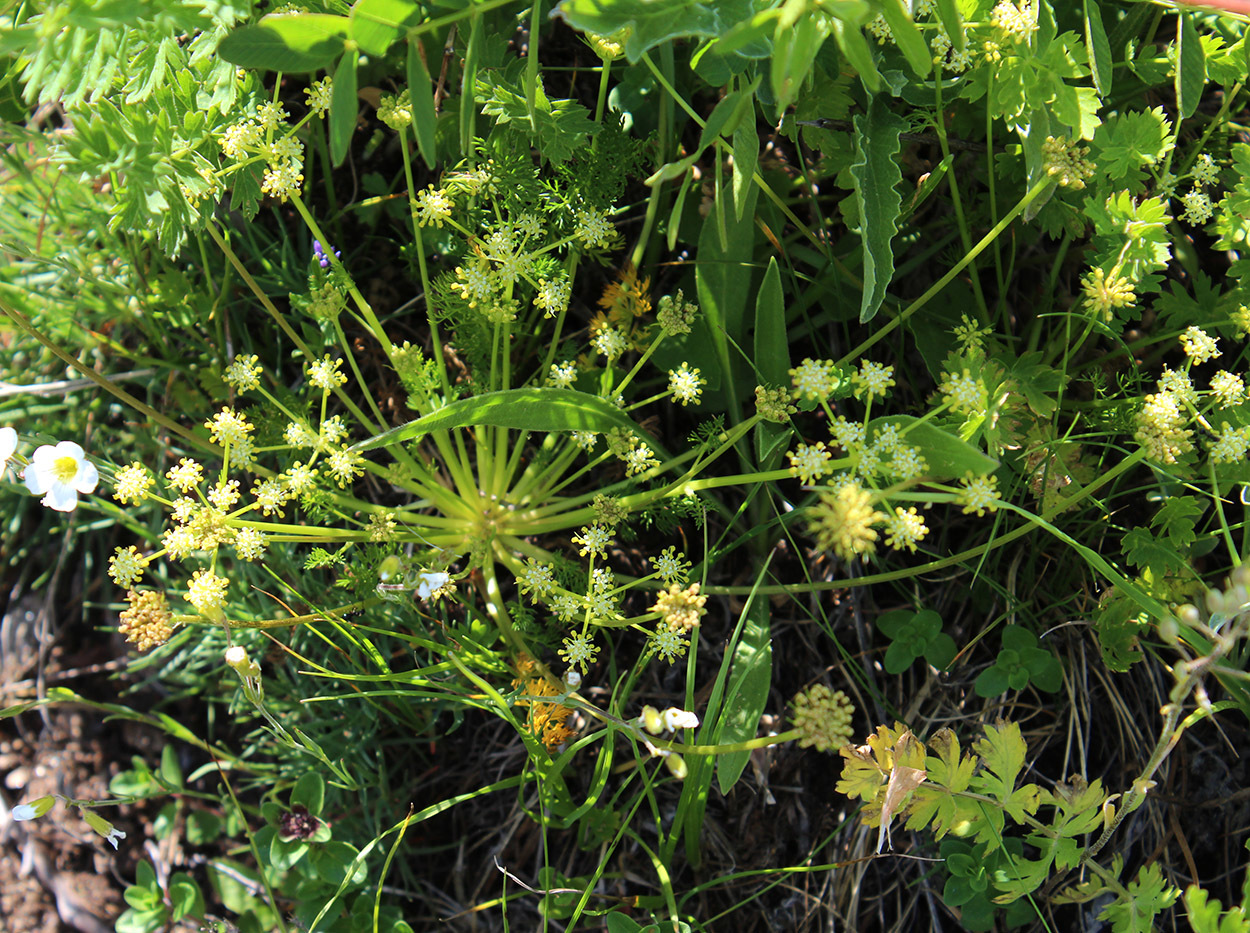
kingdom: Plantae
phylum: Tracheophyta
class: Magnoliopsida
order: Apiales
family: Apiaceae
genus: Chamaesciadium
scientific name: Chamaesciadium acaule
